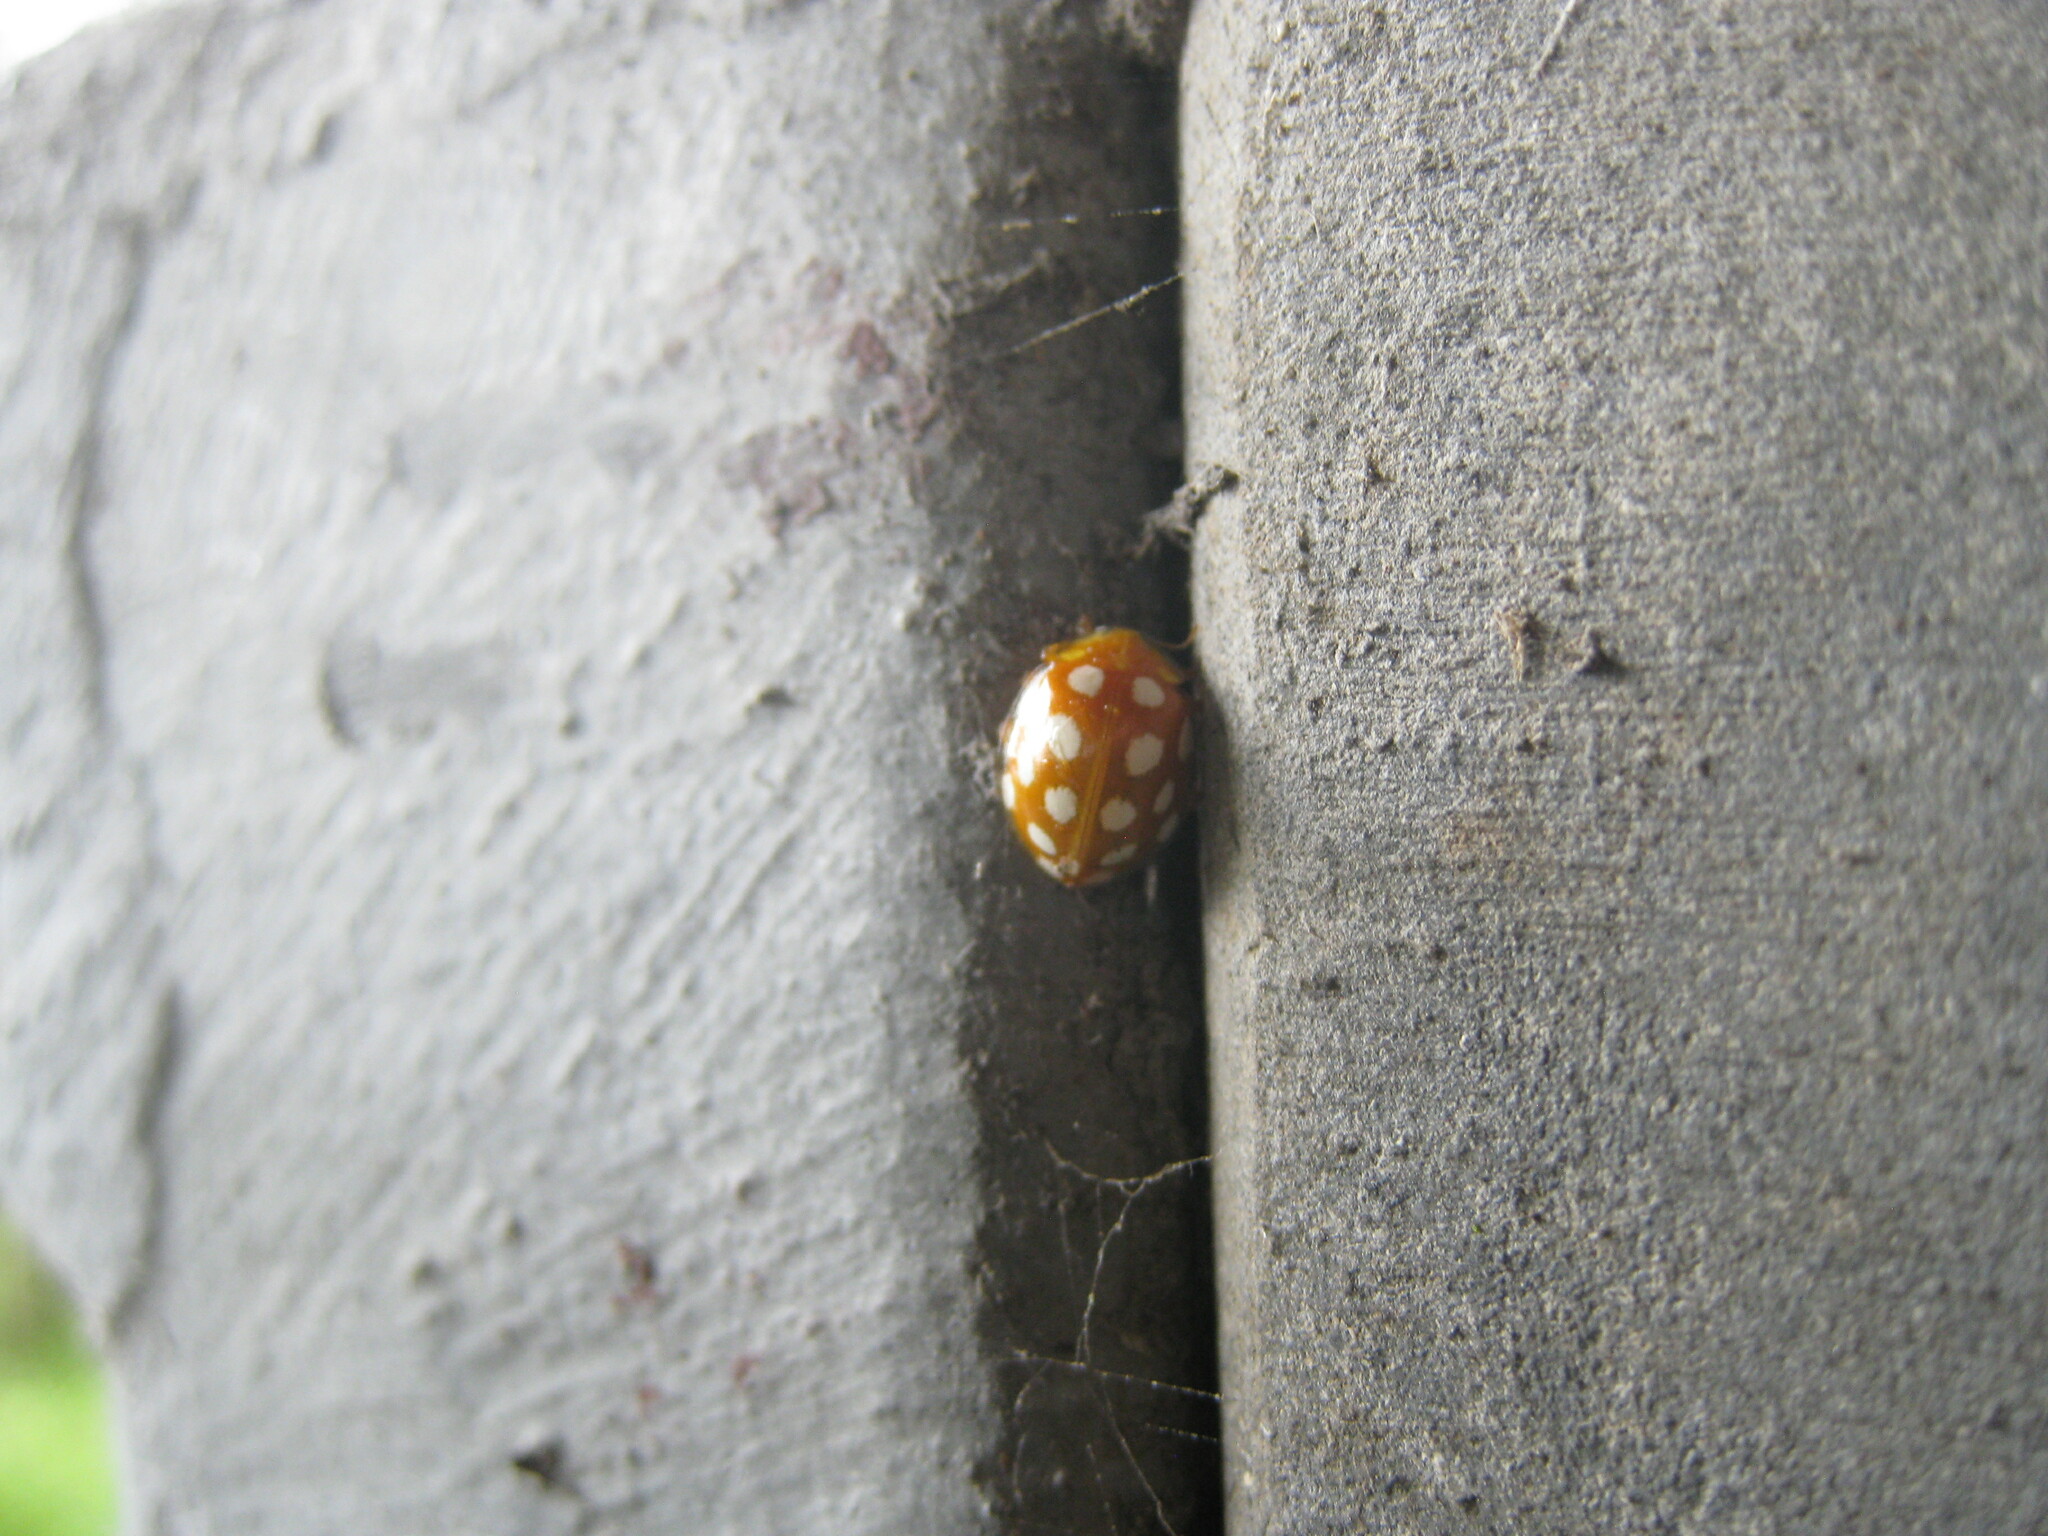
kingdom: Animalia
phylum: Arthropoda
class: Insecta
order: Coleoptera
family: Coccinellidae
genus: Halyzia
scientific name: Halyzia sedecimguttata
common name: Orange ladybird
